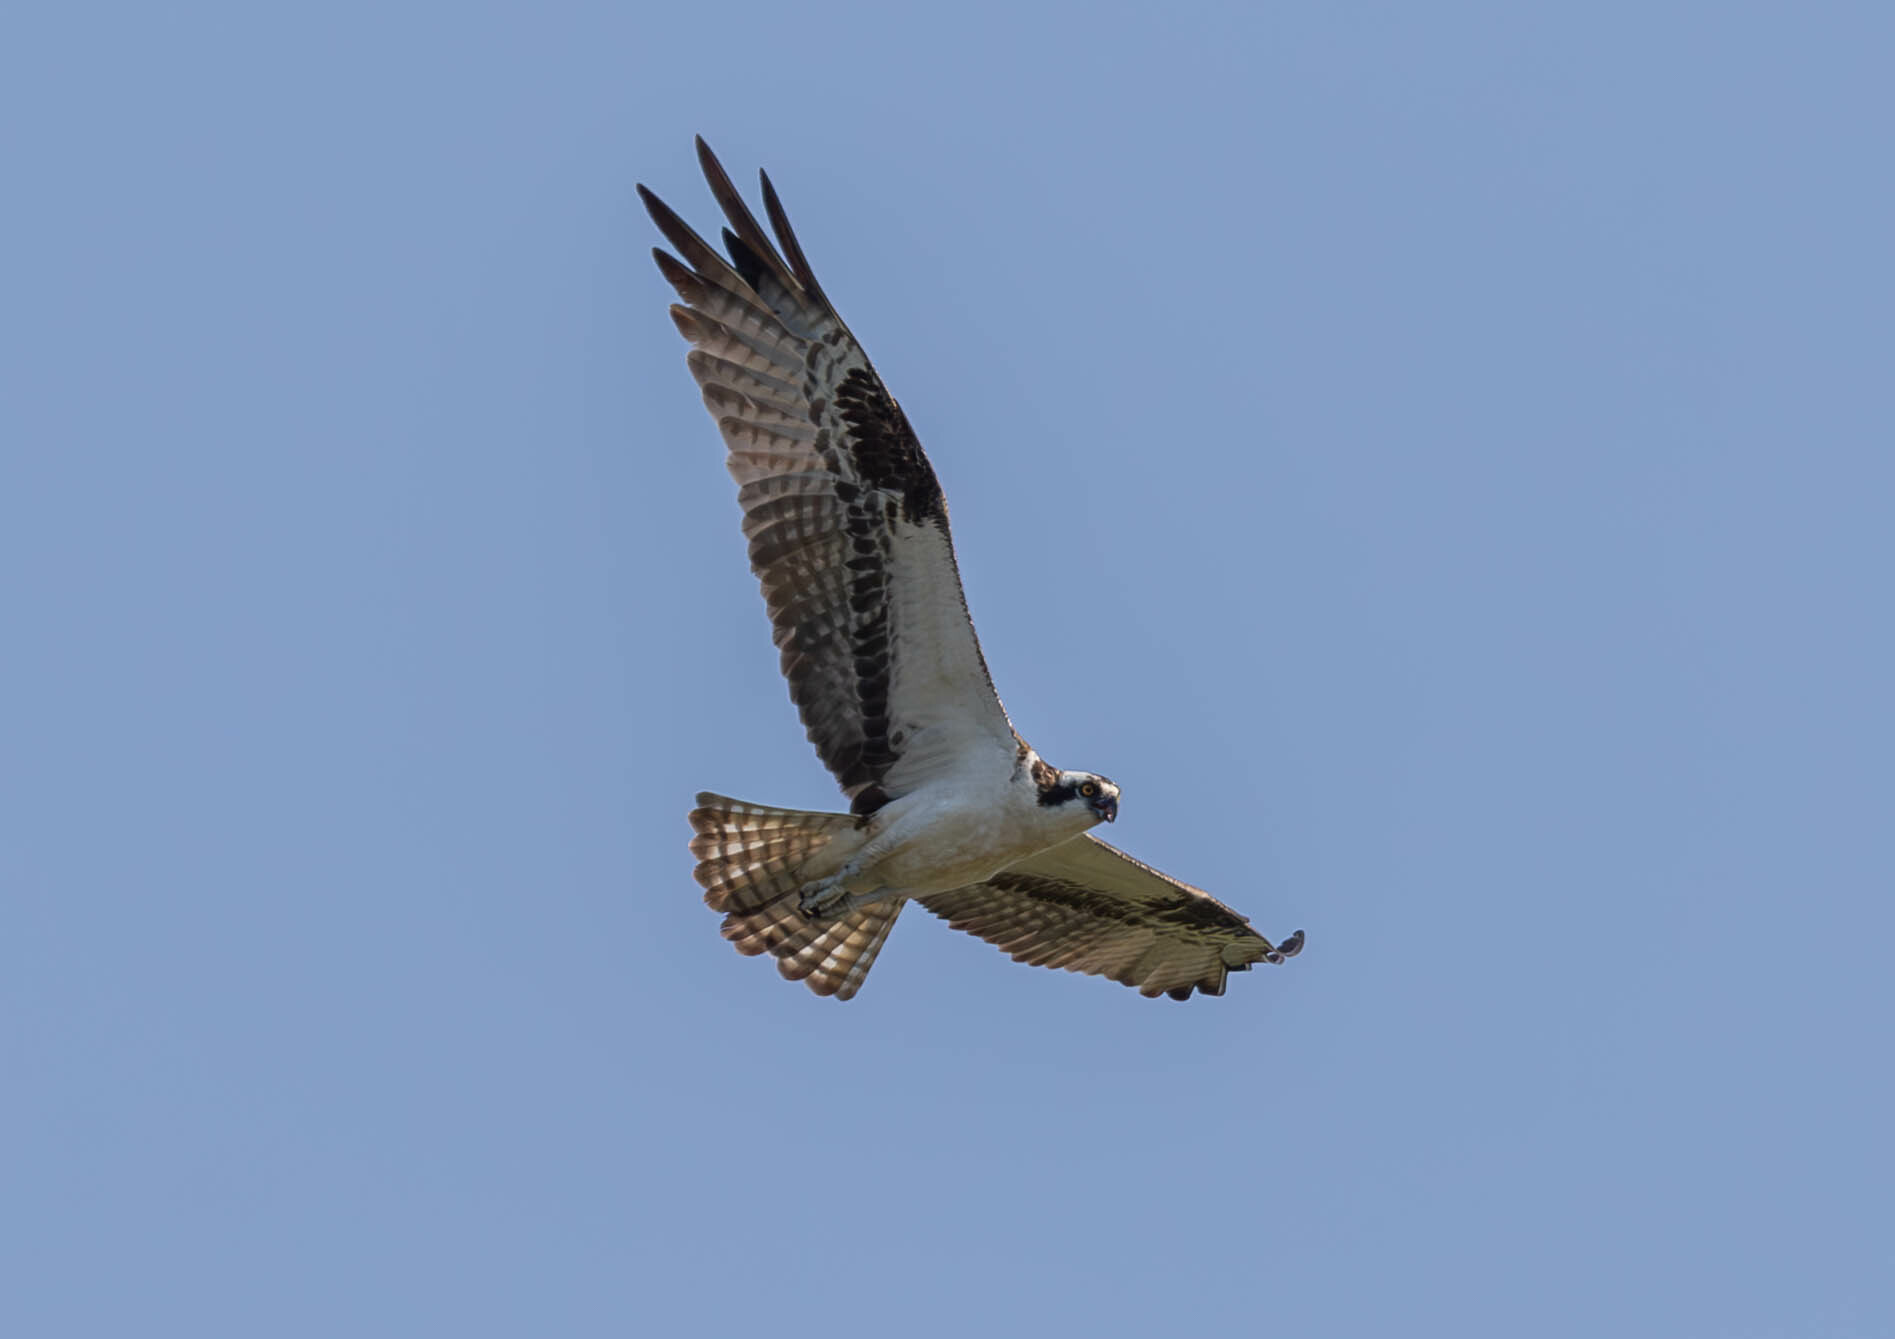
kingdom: Animalia
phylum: Chordata
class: Aves
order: Accipitriformes
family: Pandionidae
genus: Pandion
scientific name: Pandion haliaetus
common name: Osprey
